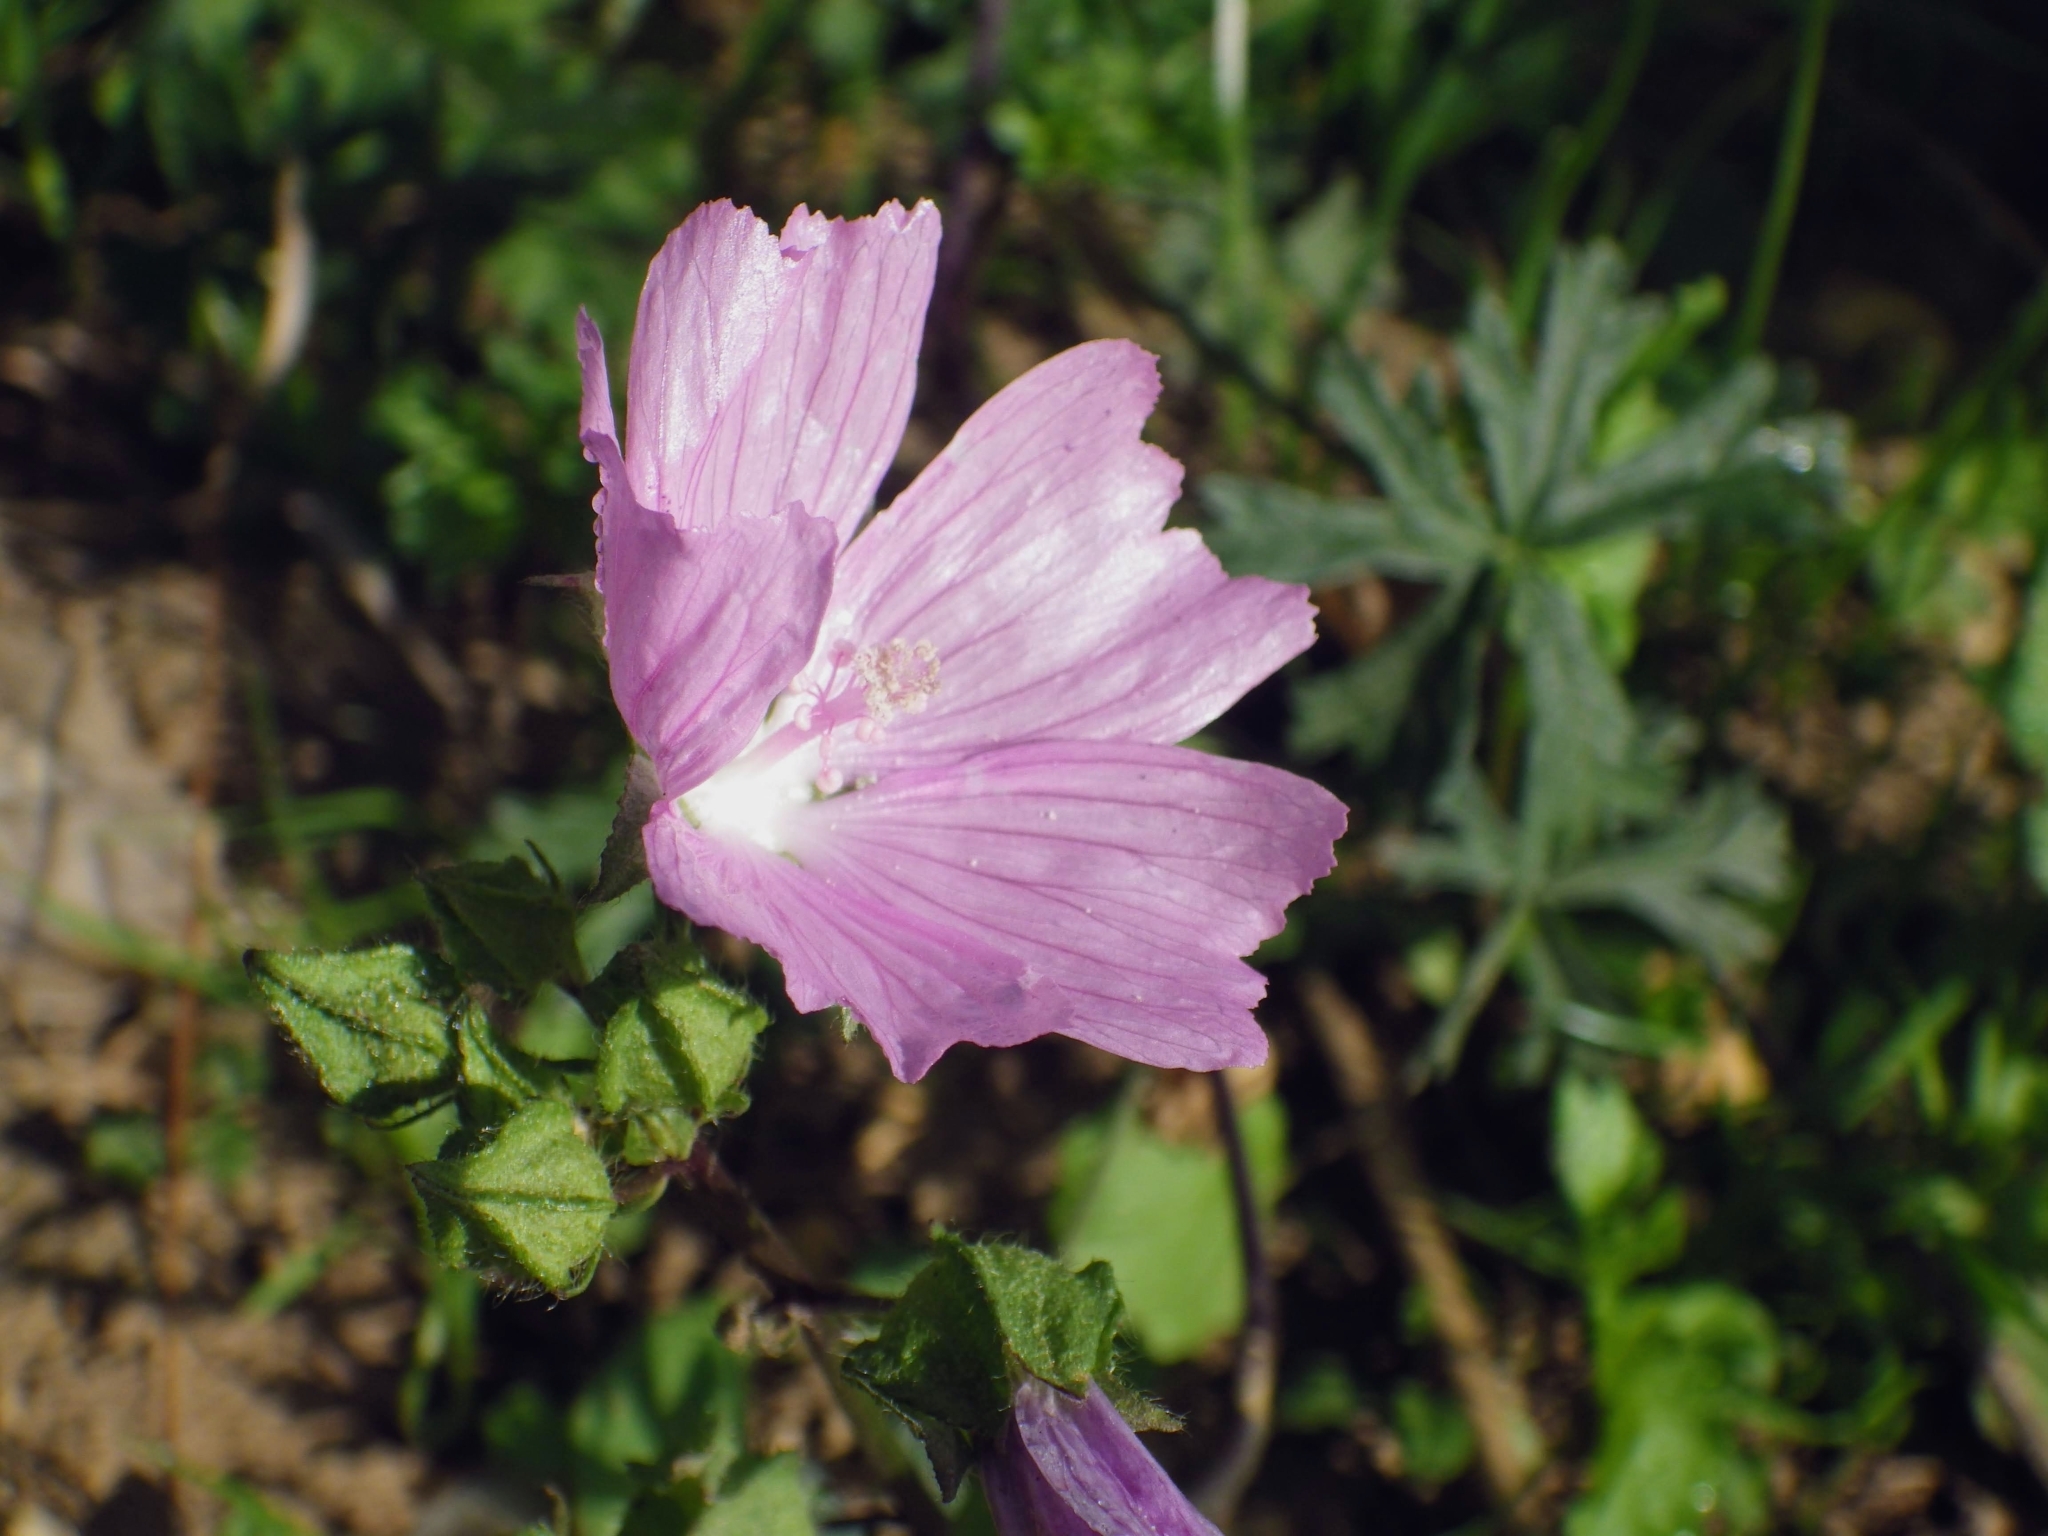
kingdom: Plantae
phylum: Tracheophyta
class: Magnoliopsida
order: Malvales
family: Malvaceae
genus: Malva
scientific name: Malva moschata
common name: Musk mallow
